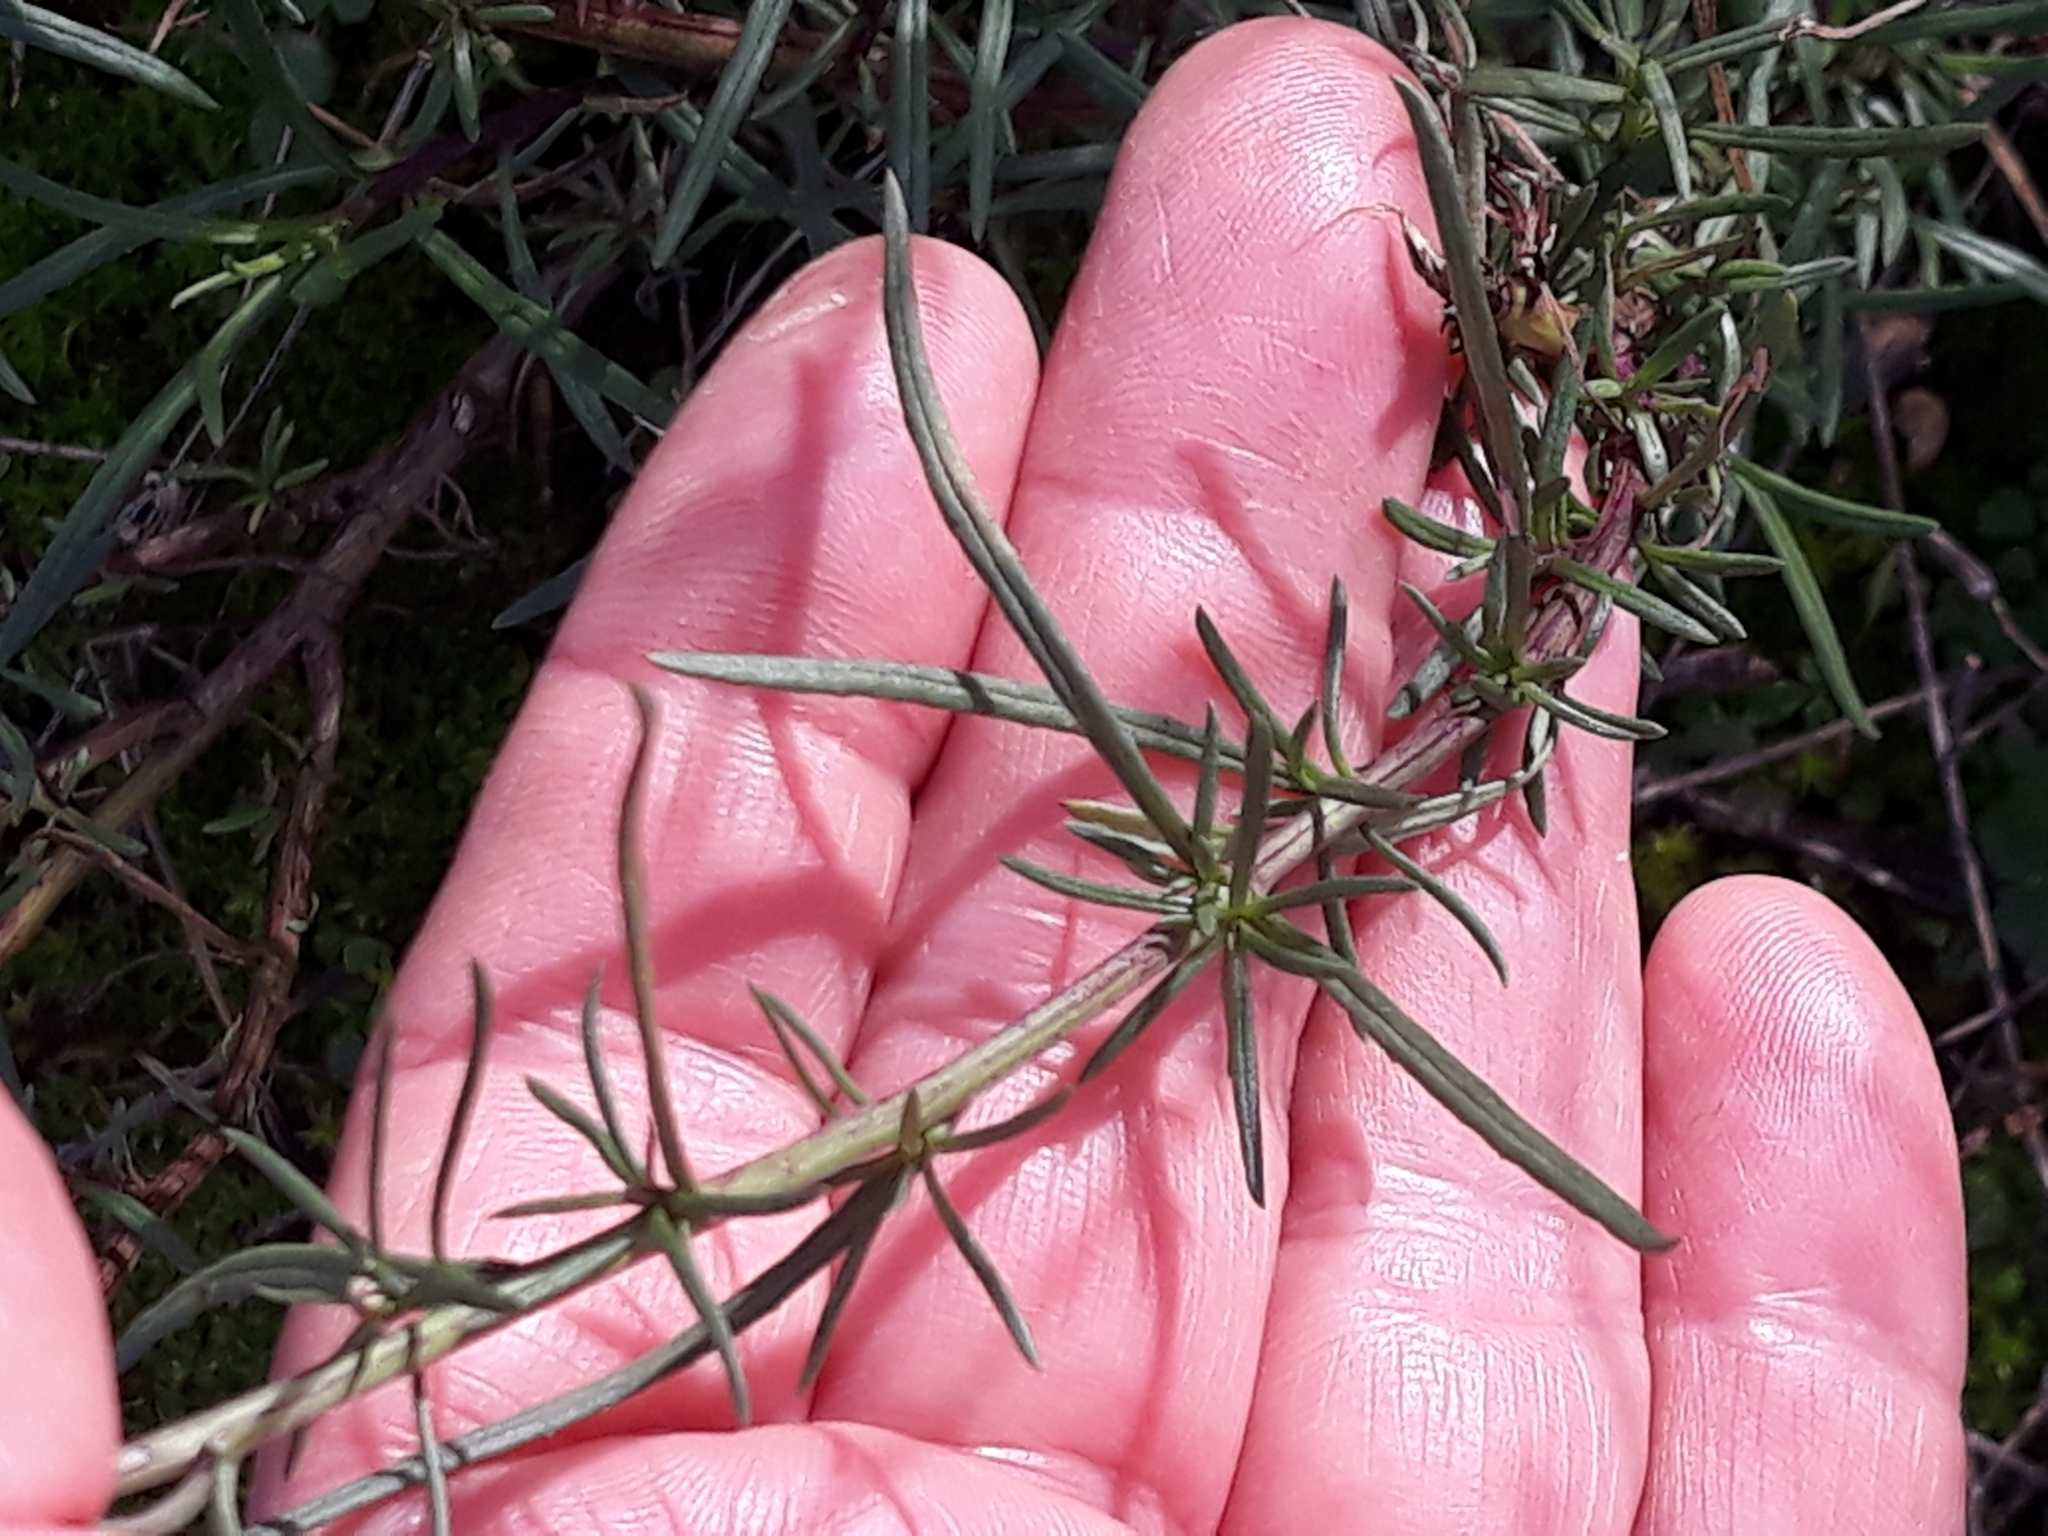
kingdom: Plantae
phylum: Tracheophyta
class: Magnoliopsida
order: Asterales
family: Asteraceae
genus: Senecio
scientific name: Senecio inaequidens
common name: Narrow-leaved ragwort
